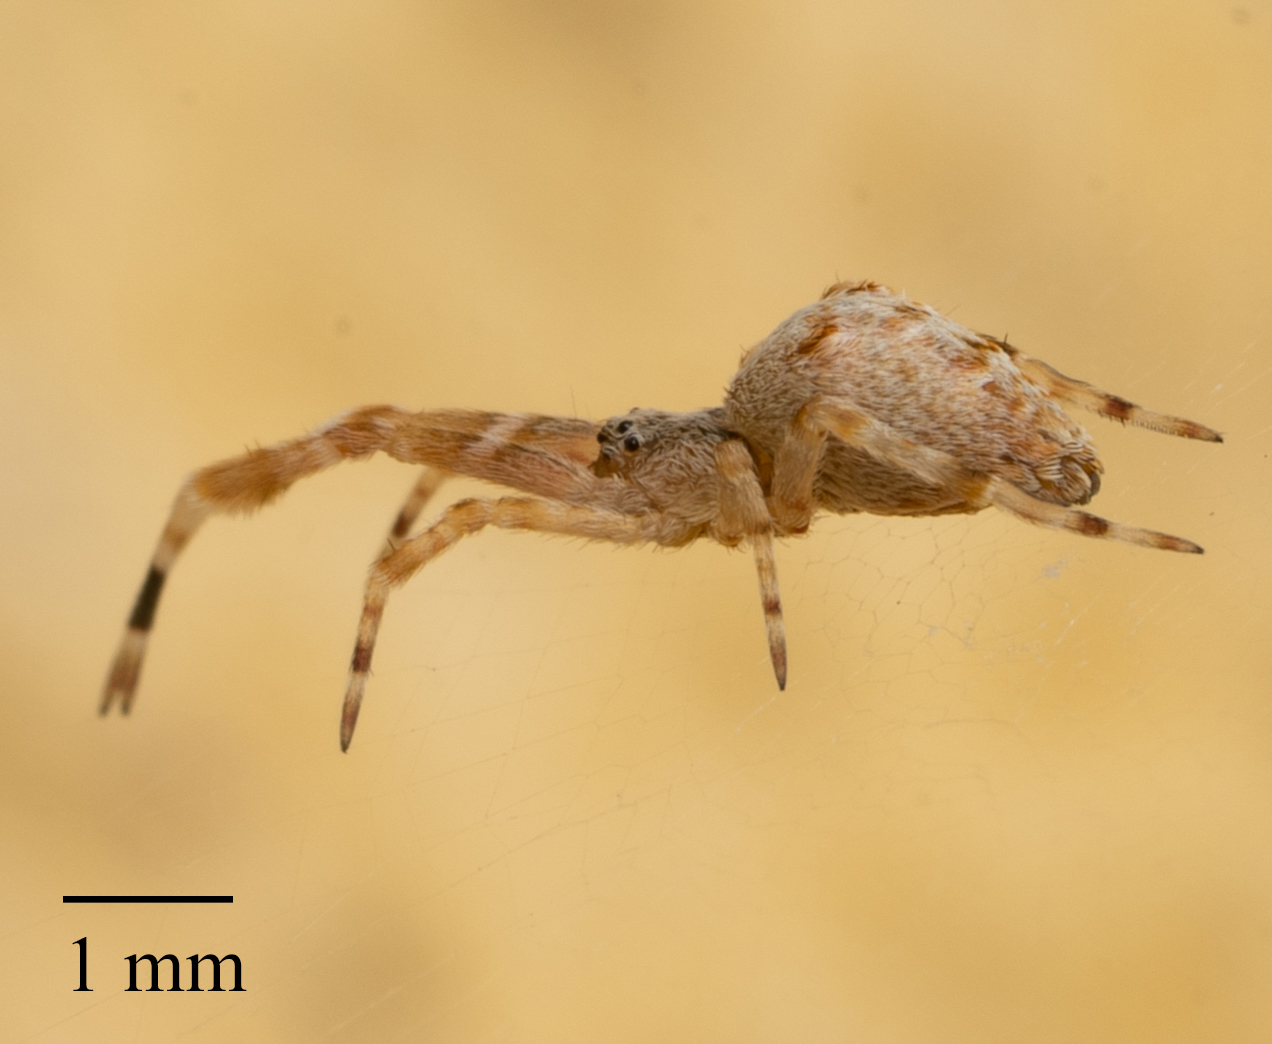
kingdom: Animalia
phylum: Arthropoda
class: Arachnida
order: Araneae
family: Uloboridae
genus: Uloborus
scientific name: Uloborus diversus
